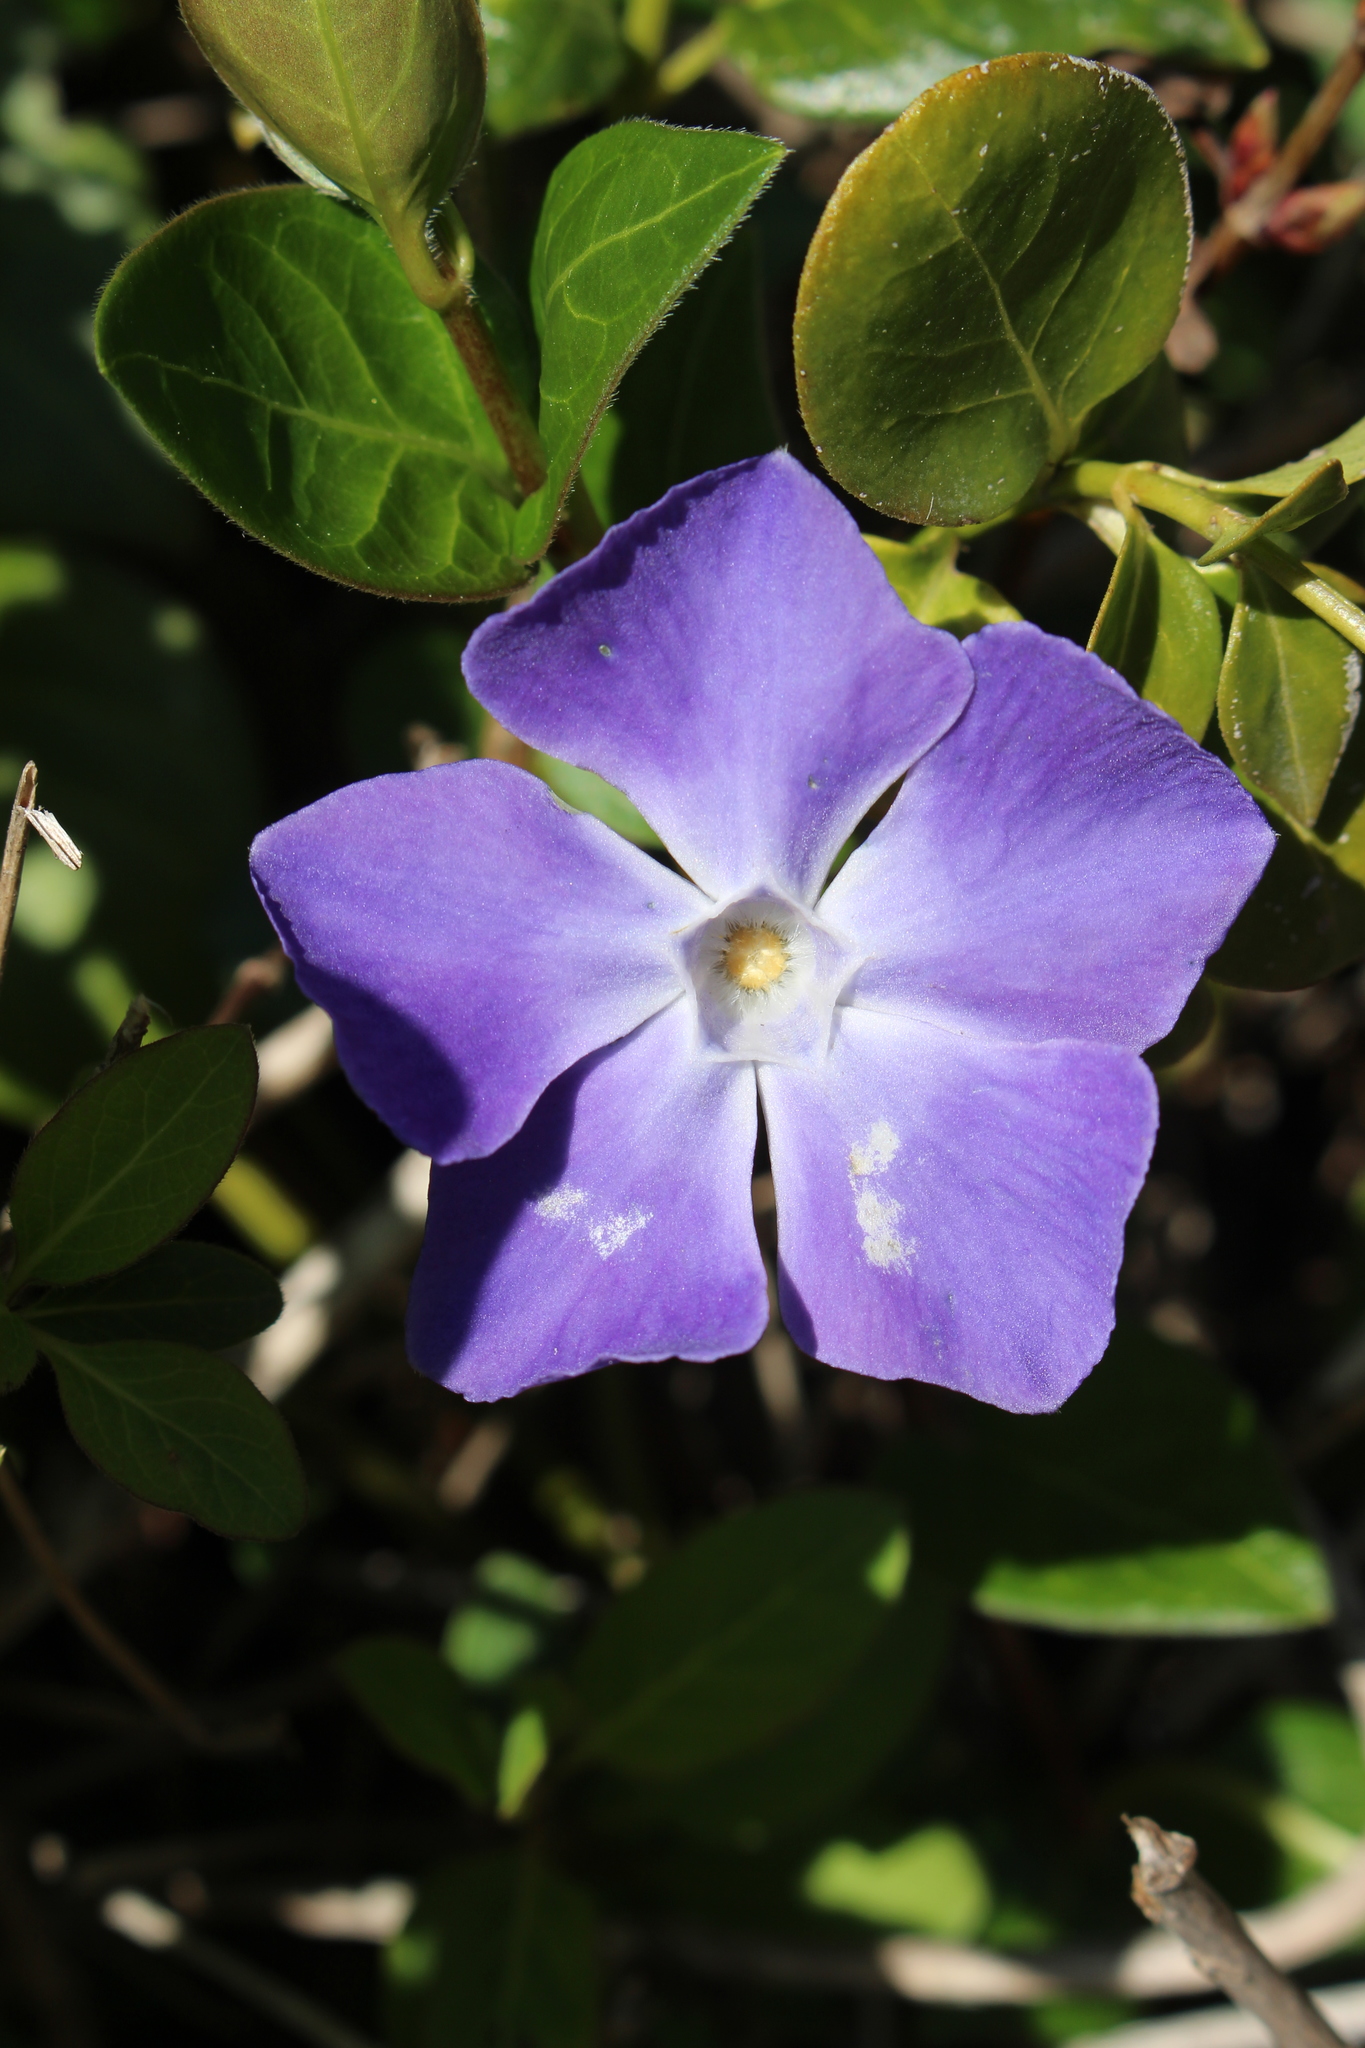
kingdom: Plantae
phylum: Tracheophyta
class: Magnoliopsida
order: Gentianales
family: Apocynaceae
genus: Vinca
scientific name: Vinca major
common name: Greater periwinkle
